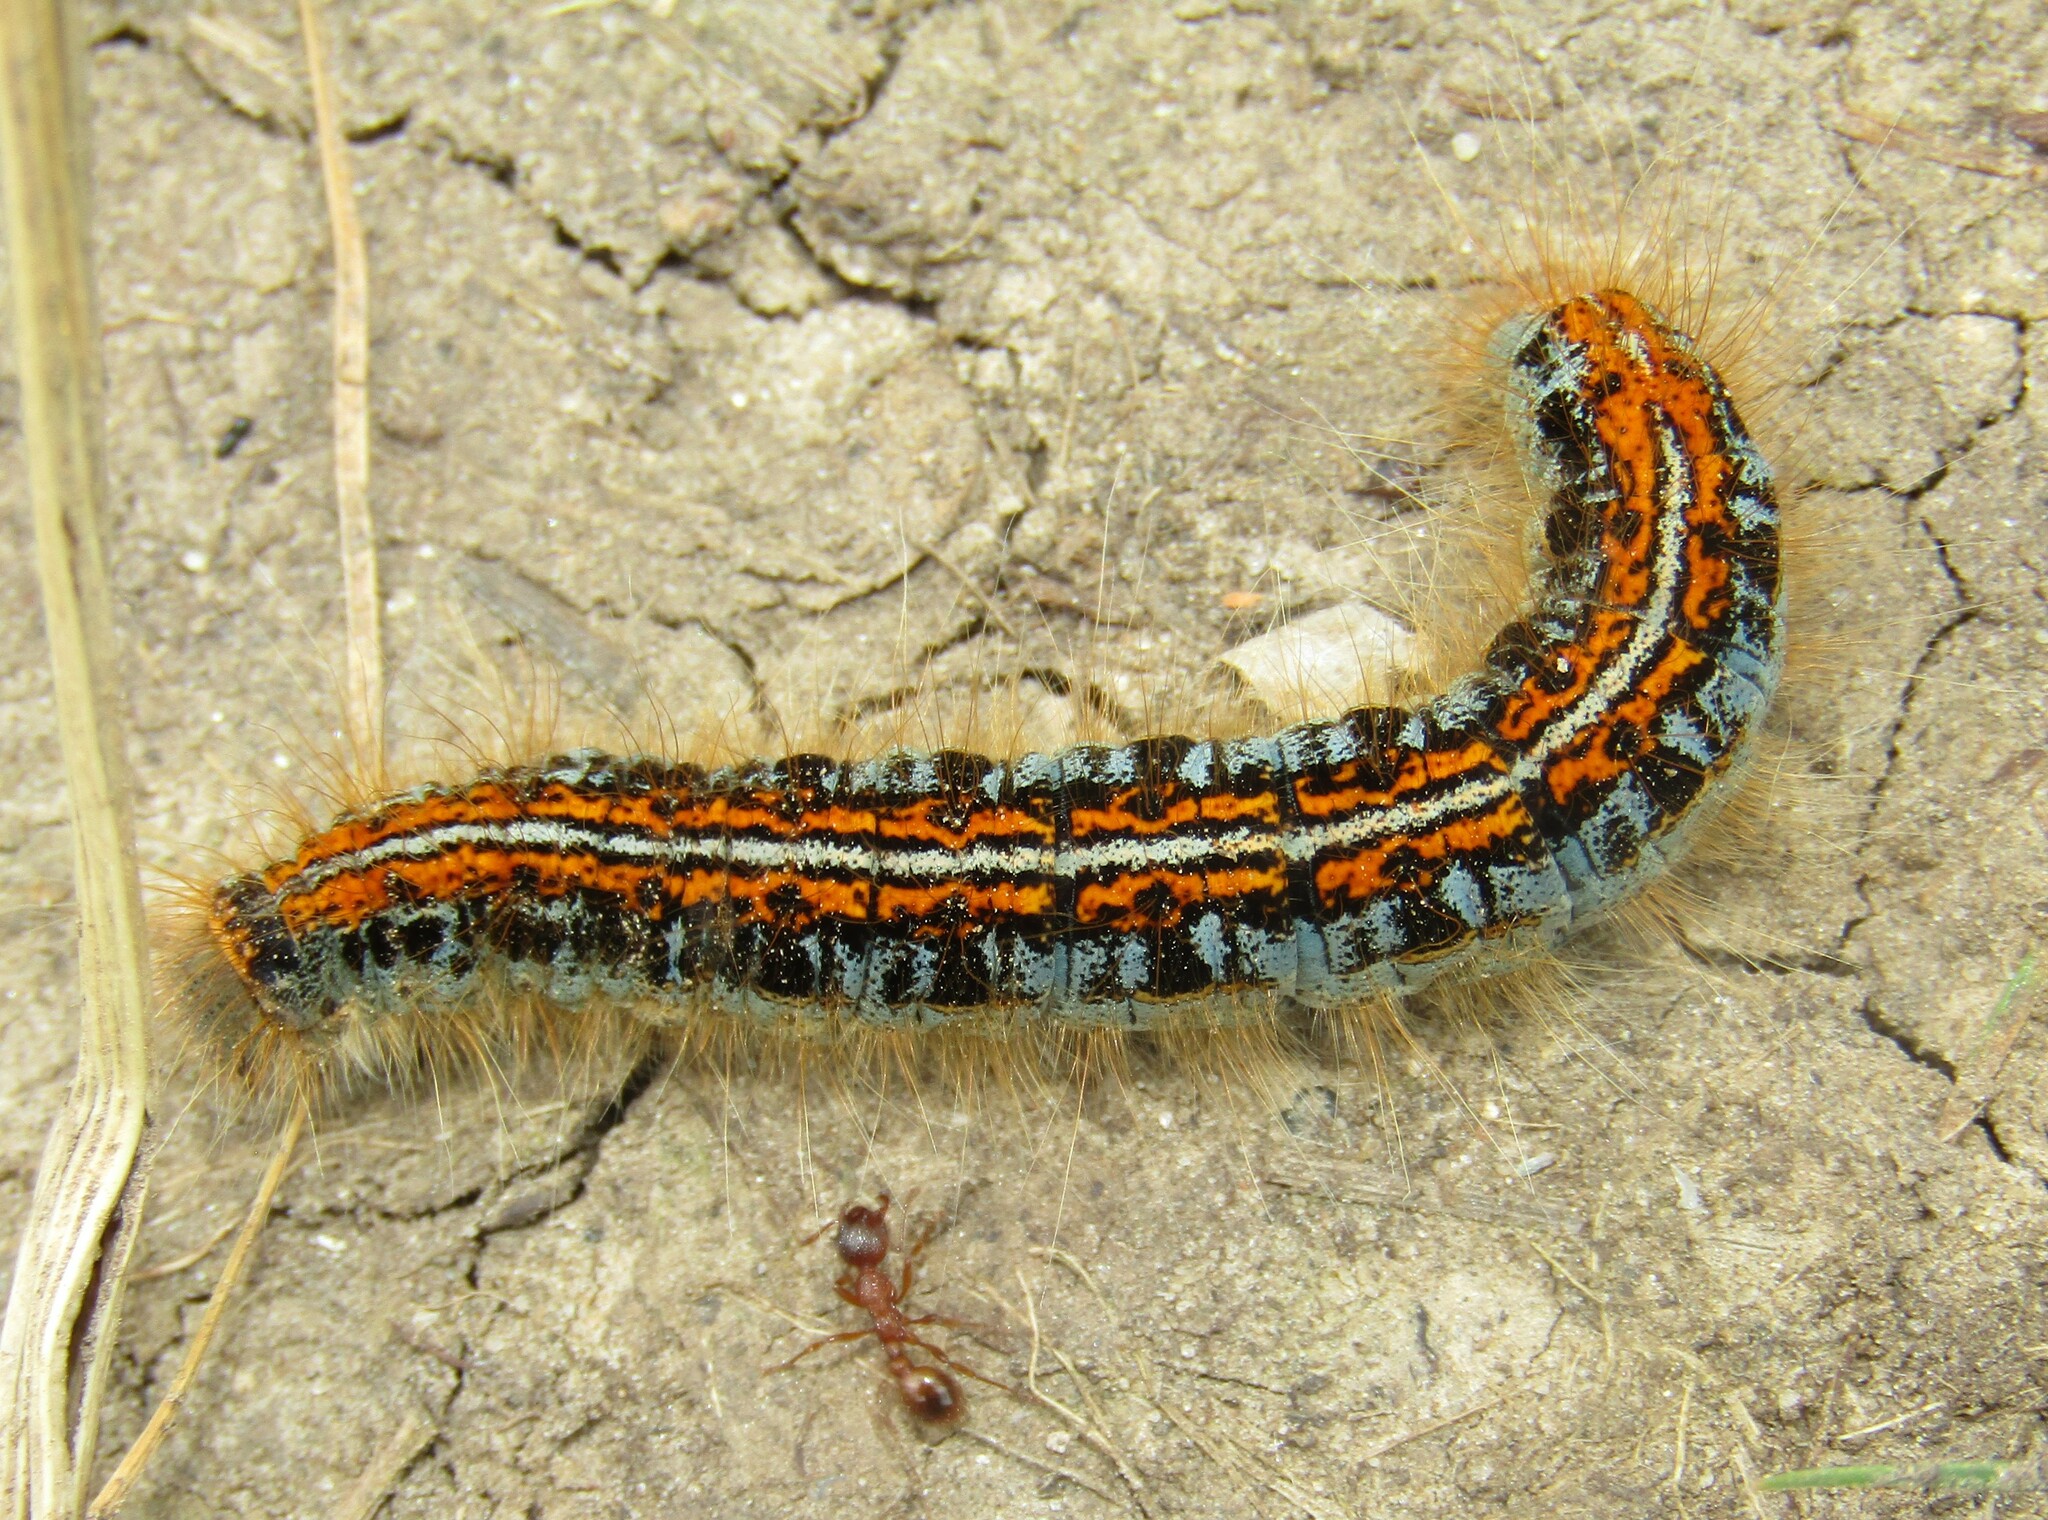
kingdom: Animalia
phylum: Arthropoda
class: Insecta
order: Lepidoptera
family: Lasiocampidae
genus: Malacosoma
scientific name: Malacosoma castrense
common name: Ground lackey
